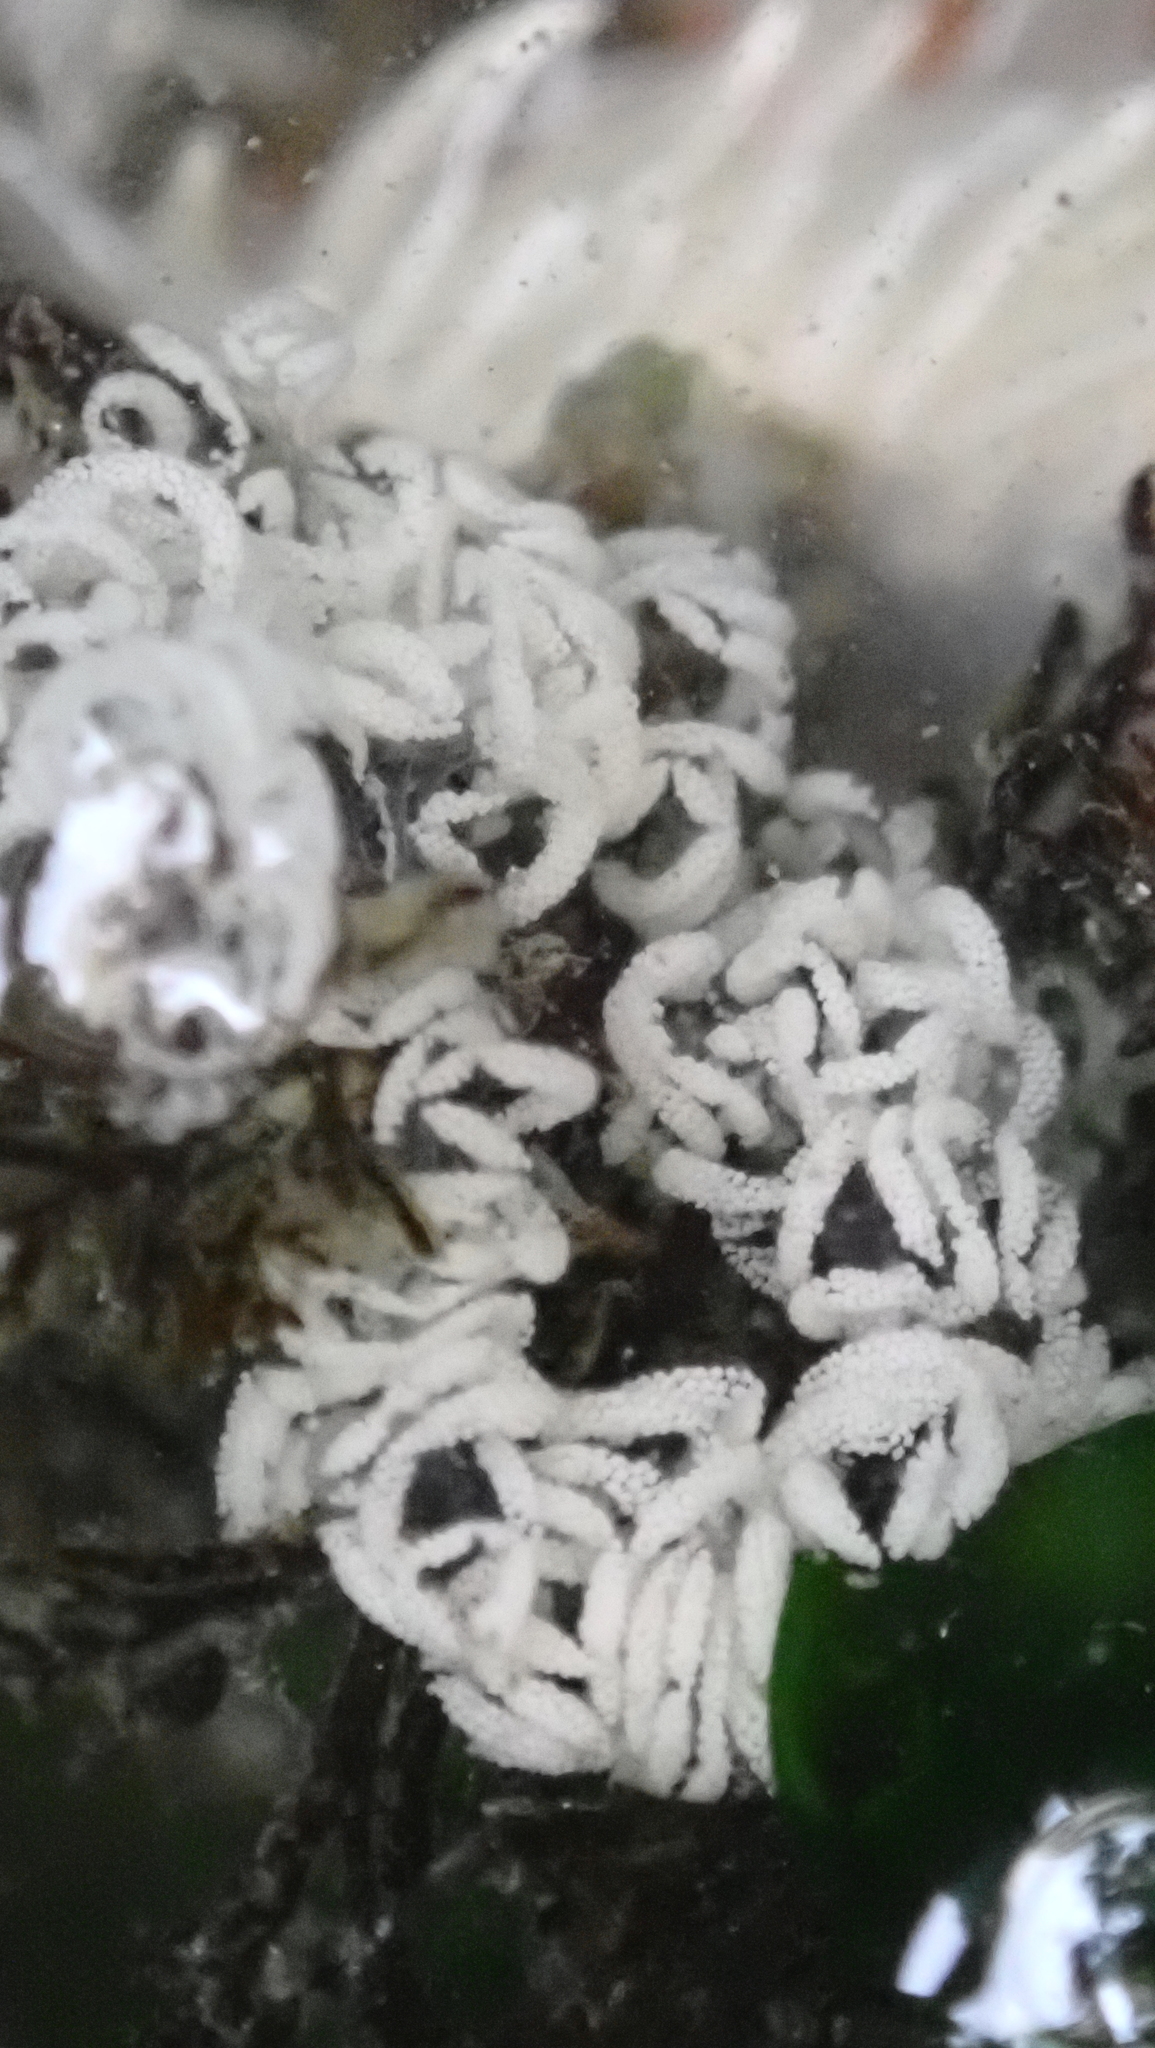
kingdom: Animalia
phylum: Mollusca
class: Gastropoda
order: Nudibranchia
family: Dironidae
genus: Dirona
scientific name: Dirona albolineata
